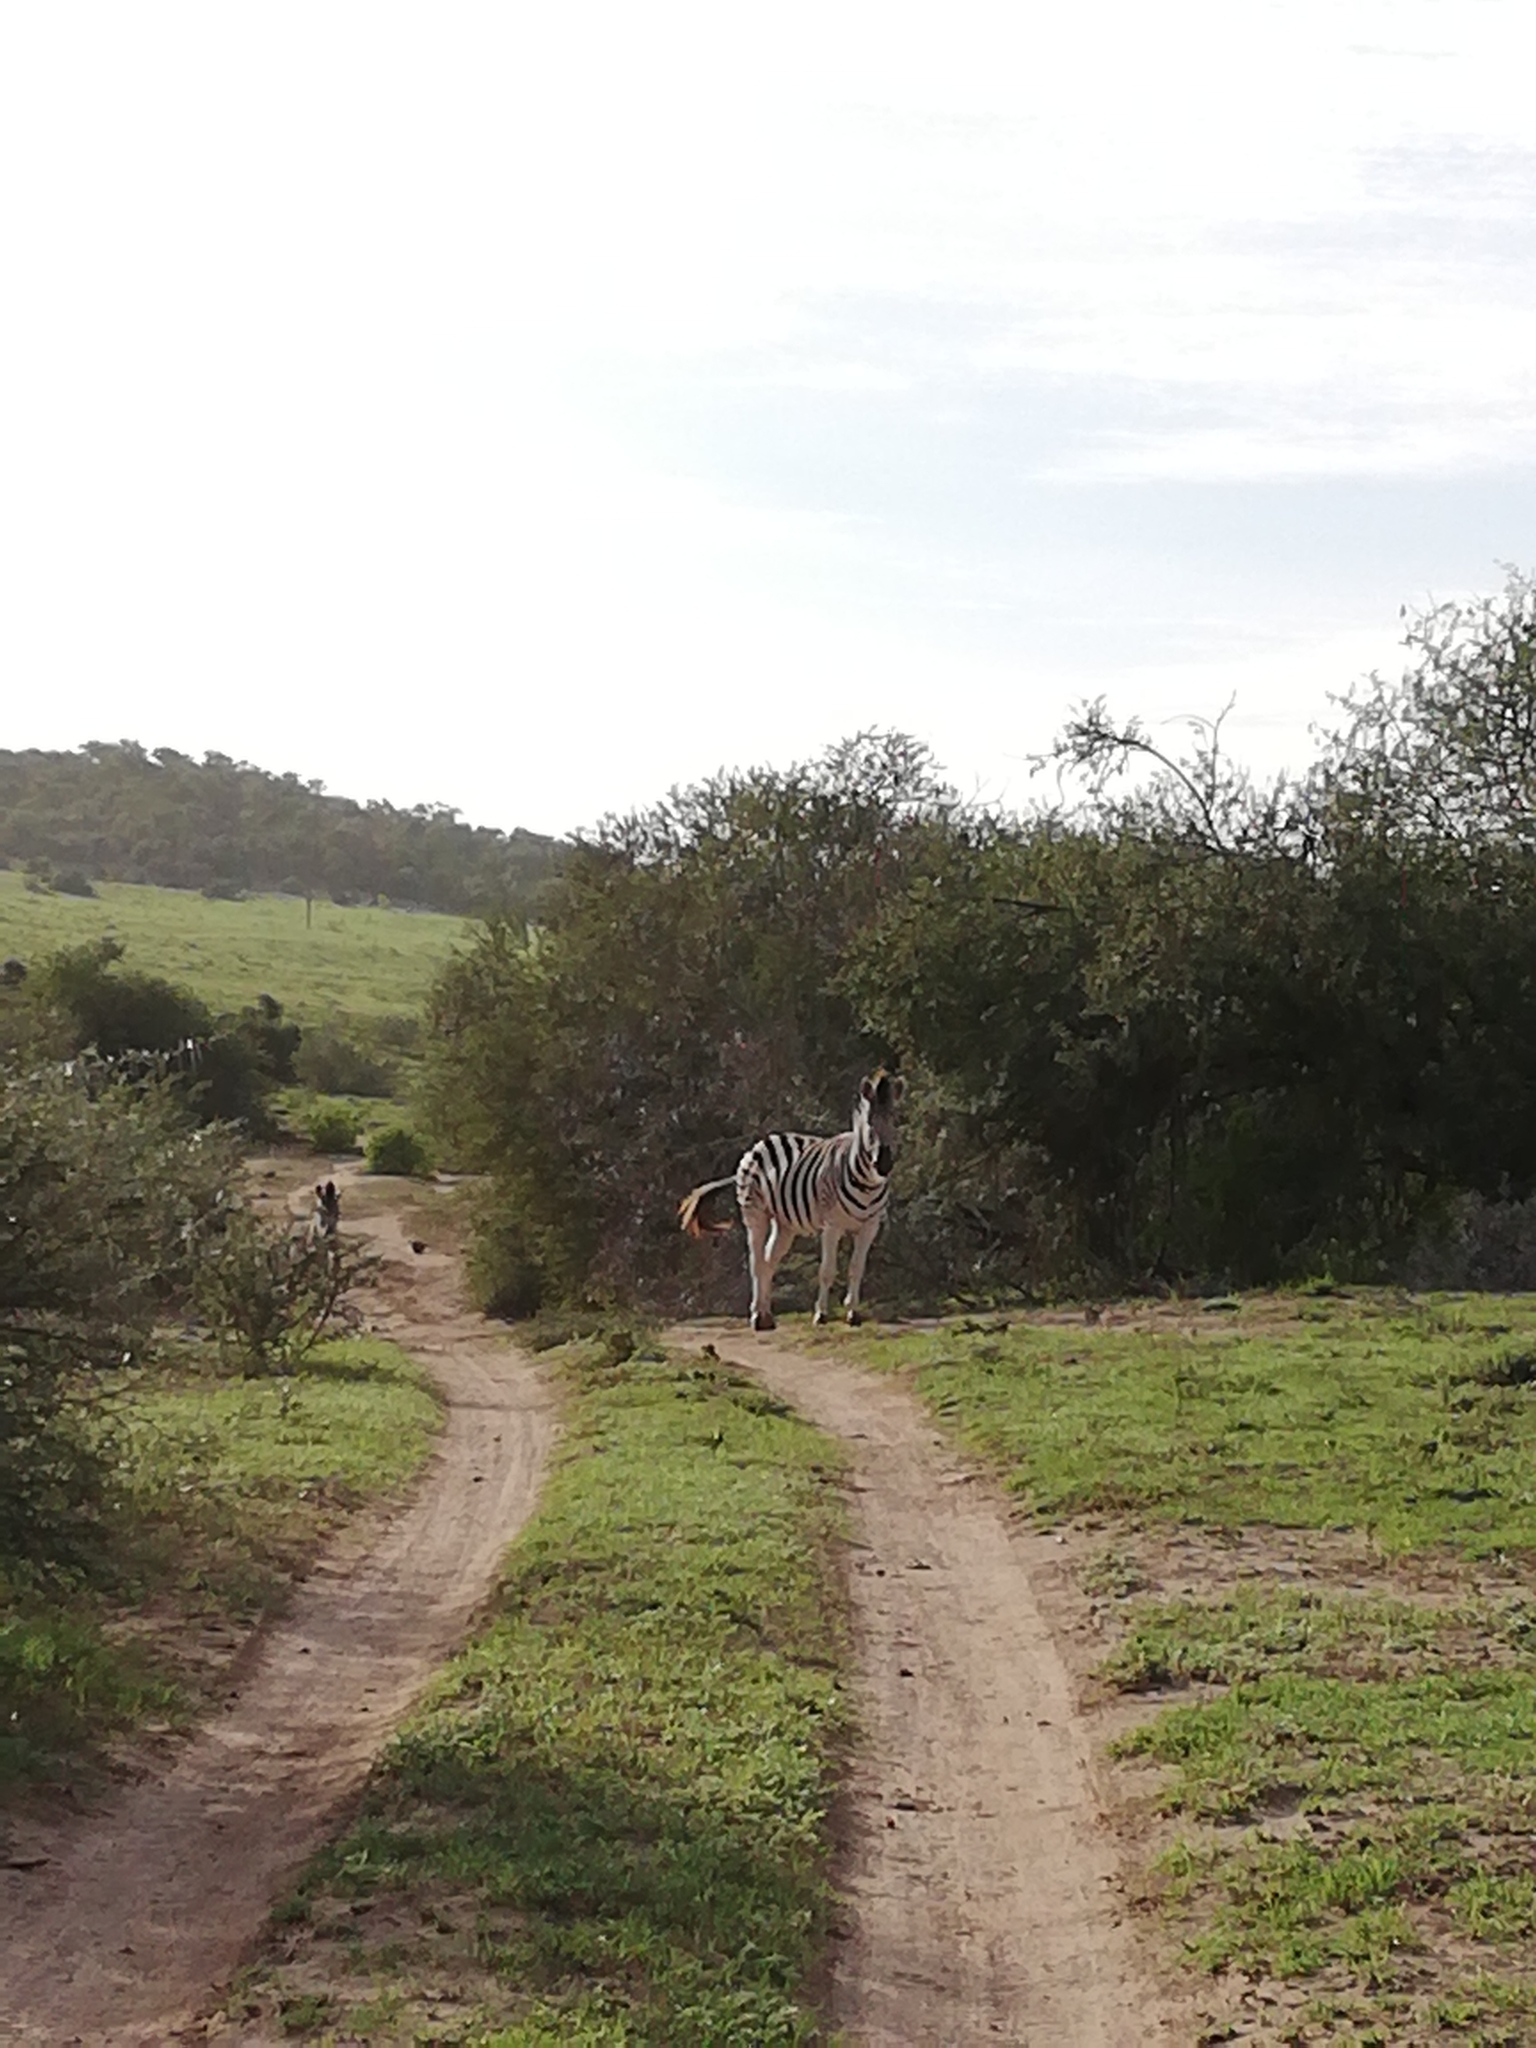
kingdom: Animalia
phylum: Chordata
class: Mammalia
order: Perissodactyla
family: Equidae
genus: Equus
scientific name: Equus quagga
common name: Plains zebra
